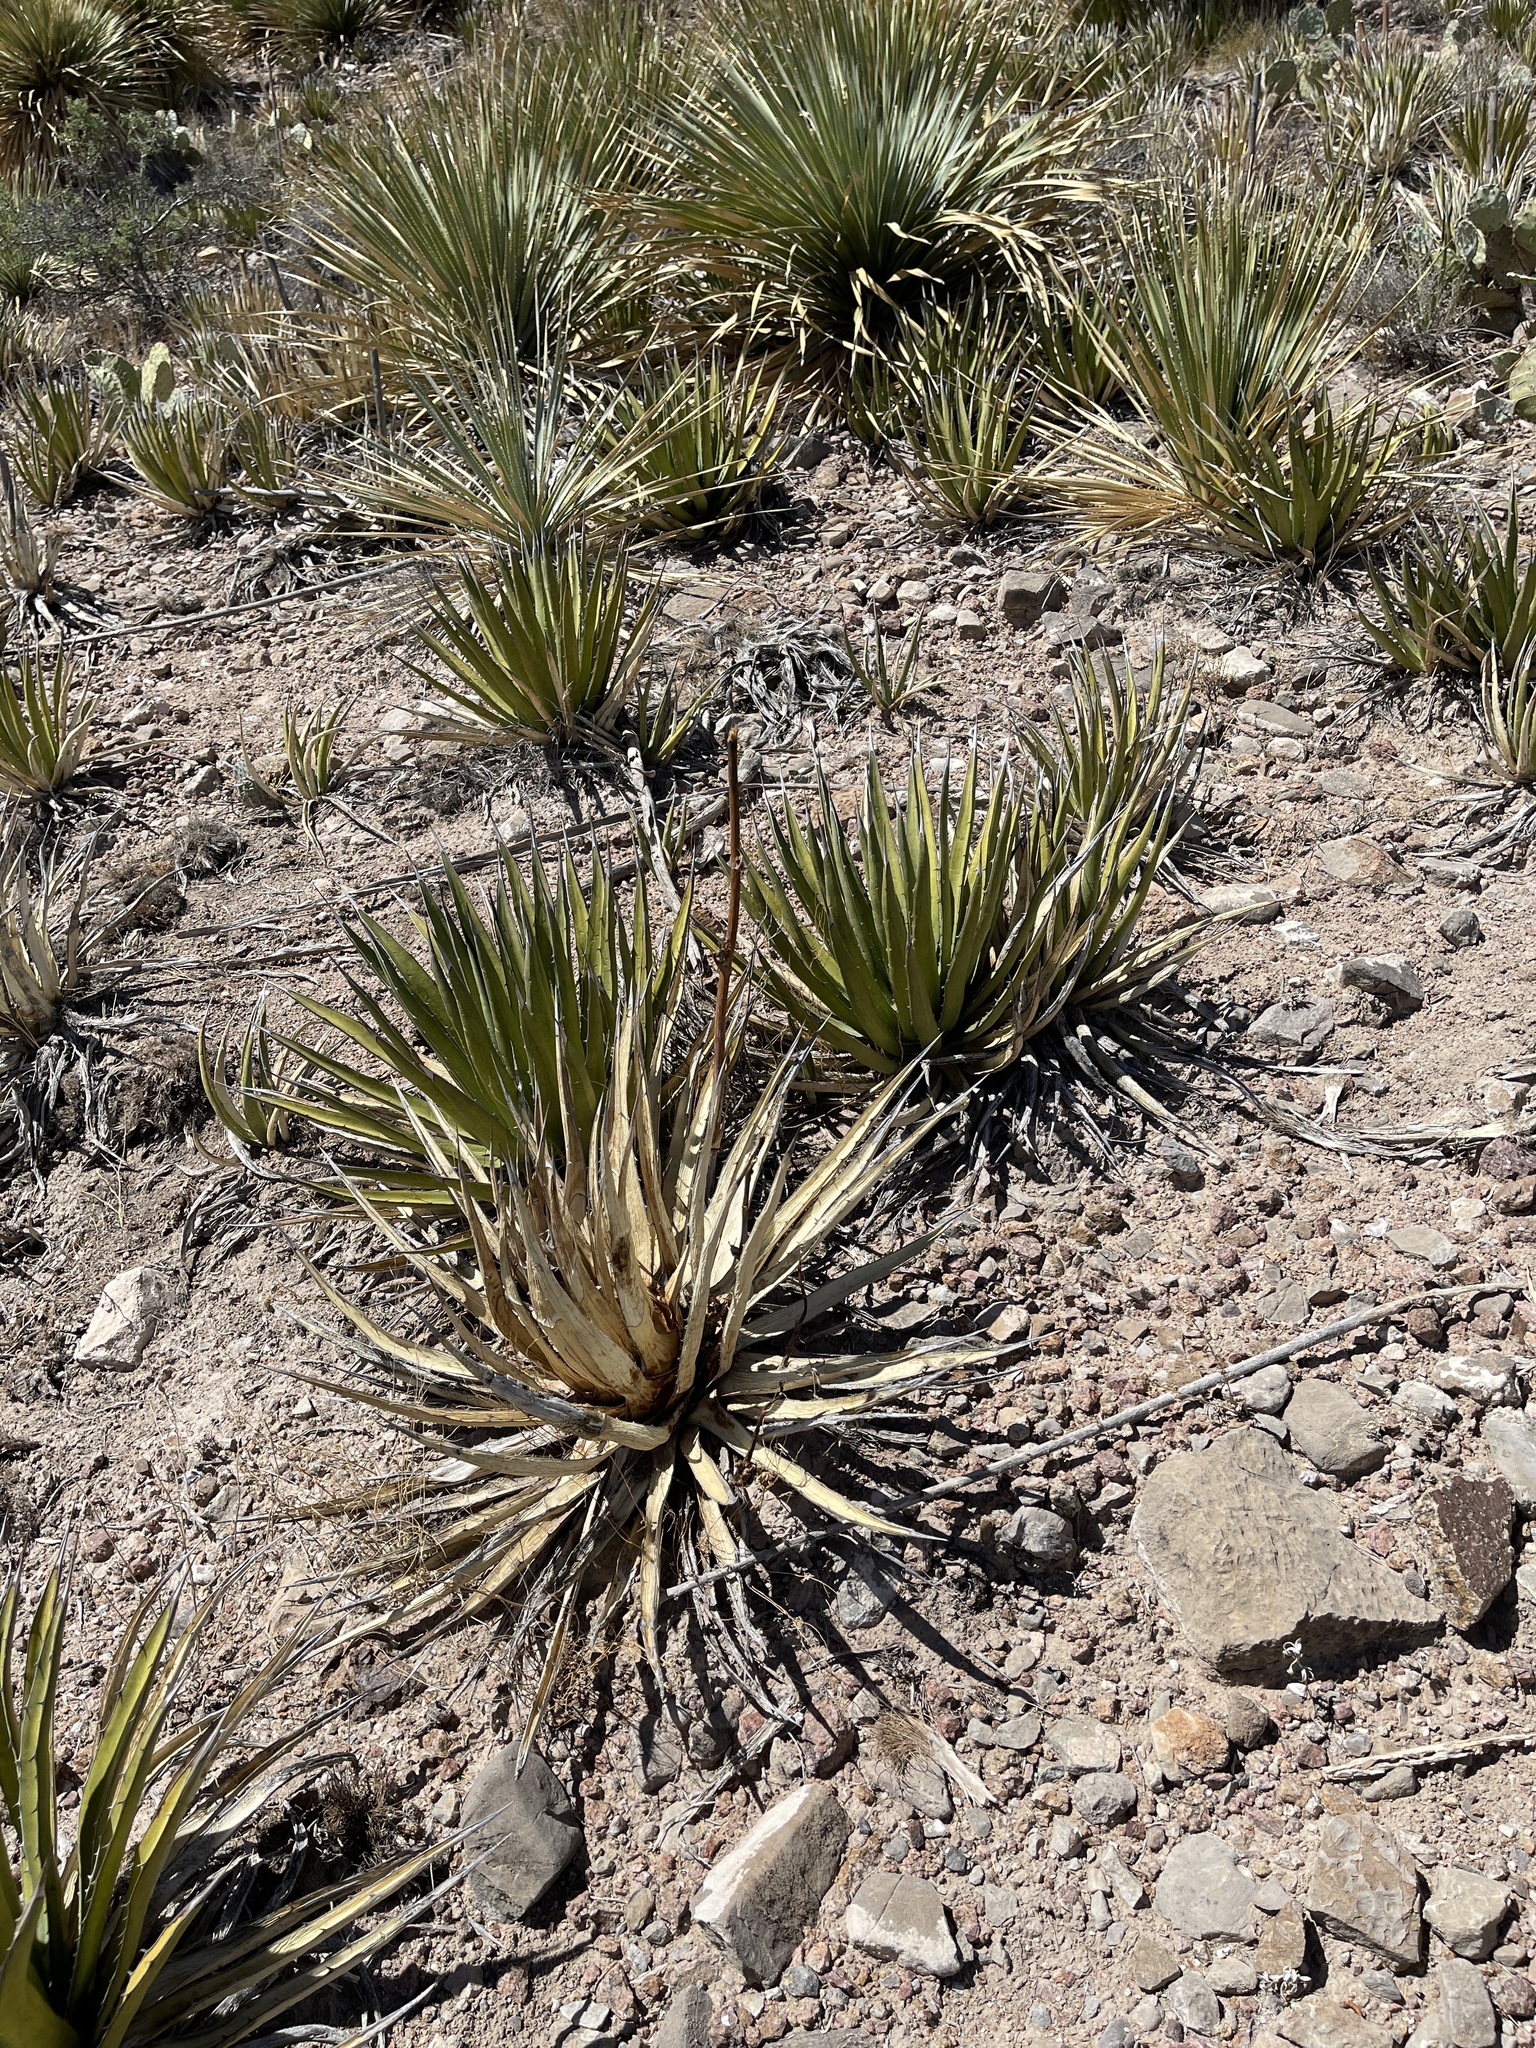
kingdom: Plantae
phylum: Tracheophyta
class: Liliopsida
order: Asparagales
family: Asparagaceae
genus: Agave
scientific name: Agave lechuguilla
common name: Lecheguilla agave
